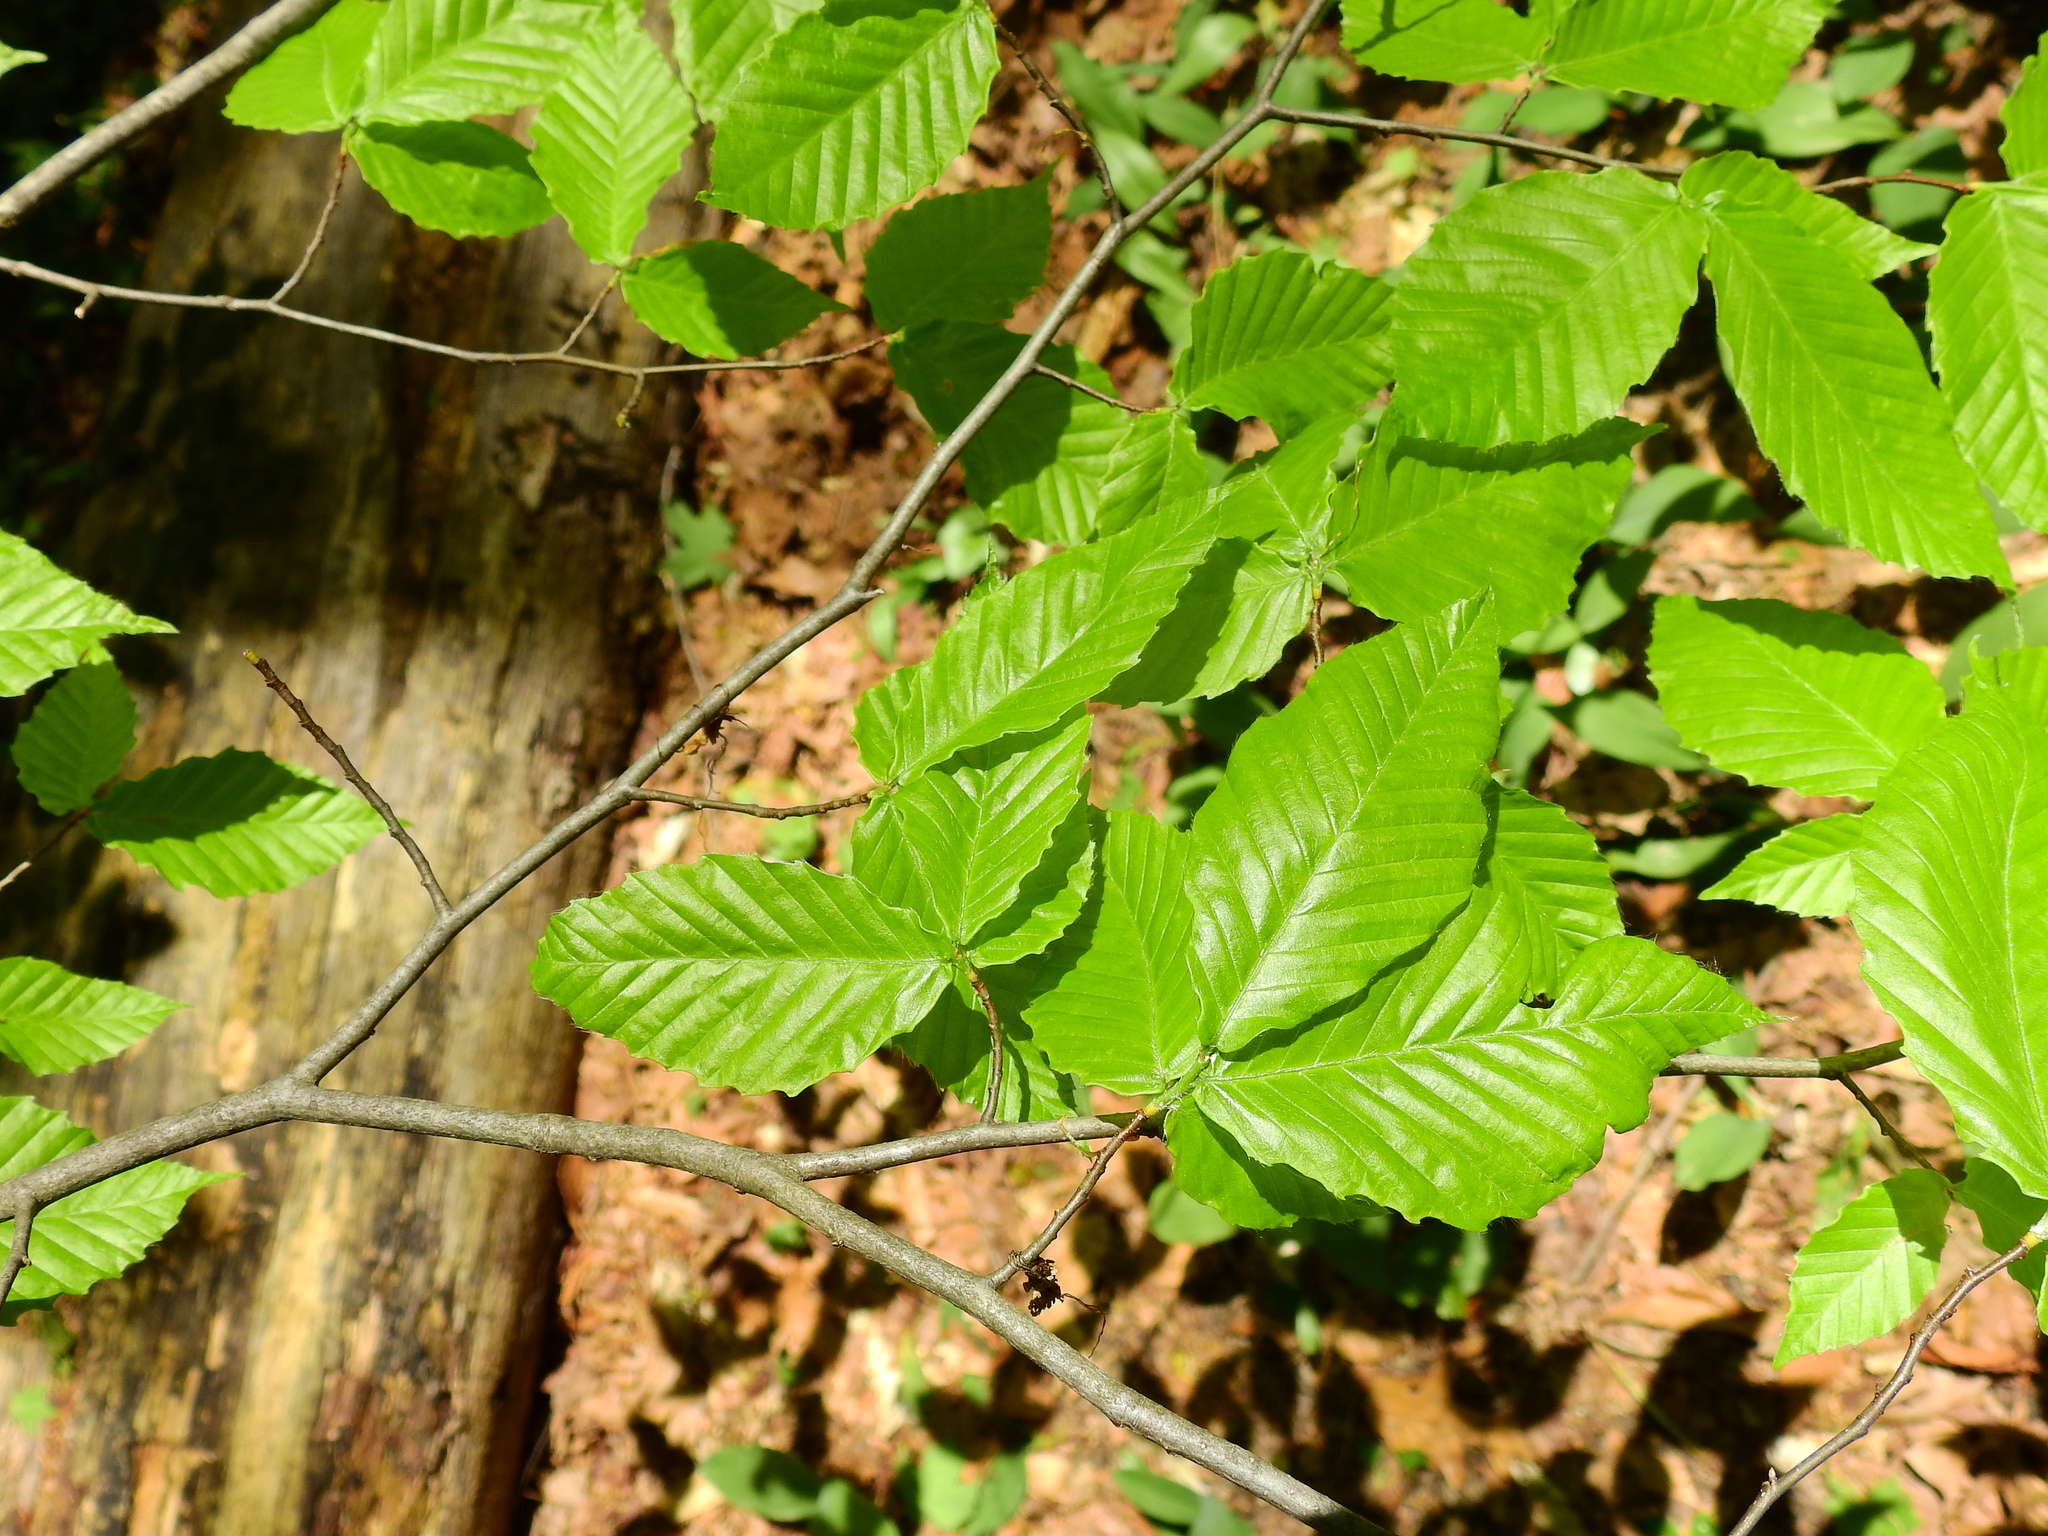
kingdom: Plantae
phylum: Tracheophyta
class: Magnoliopsida
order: Fagales
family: Fagaceae
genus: Fagus
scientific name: Fagus grandifolia
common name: American beech
